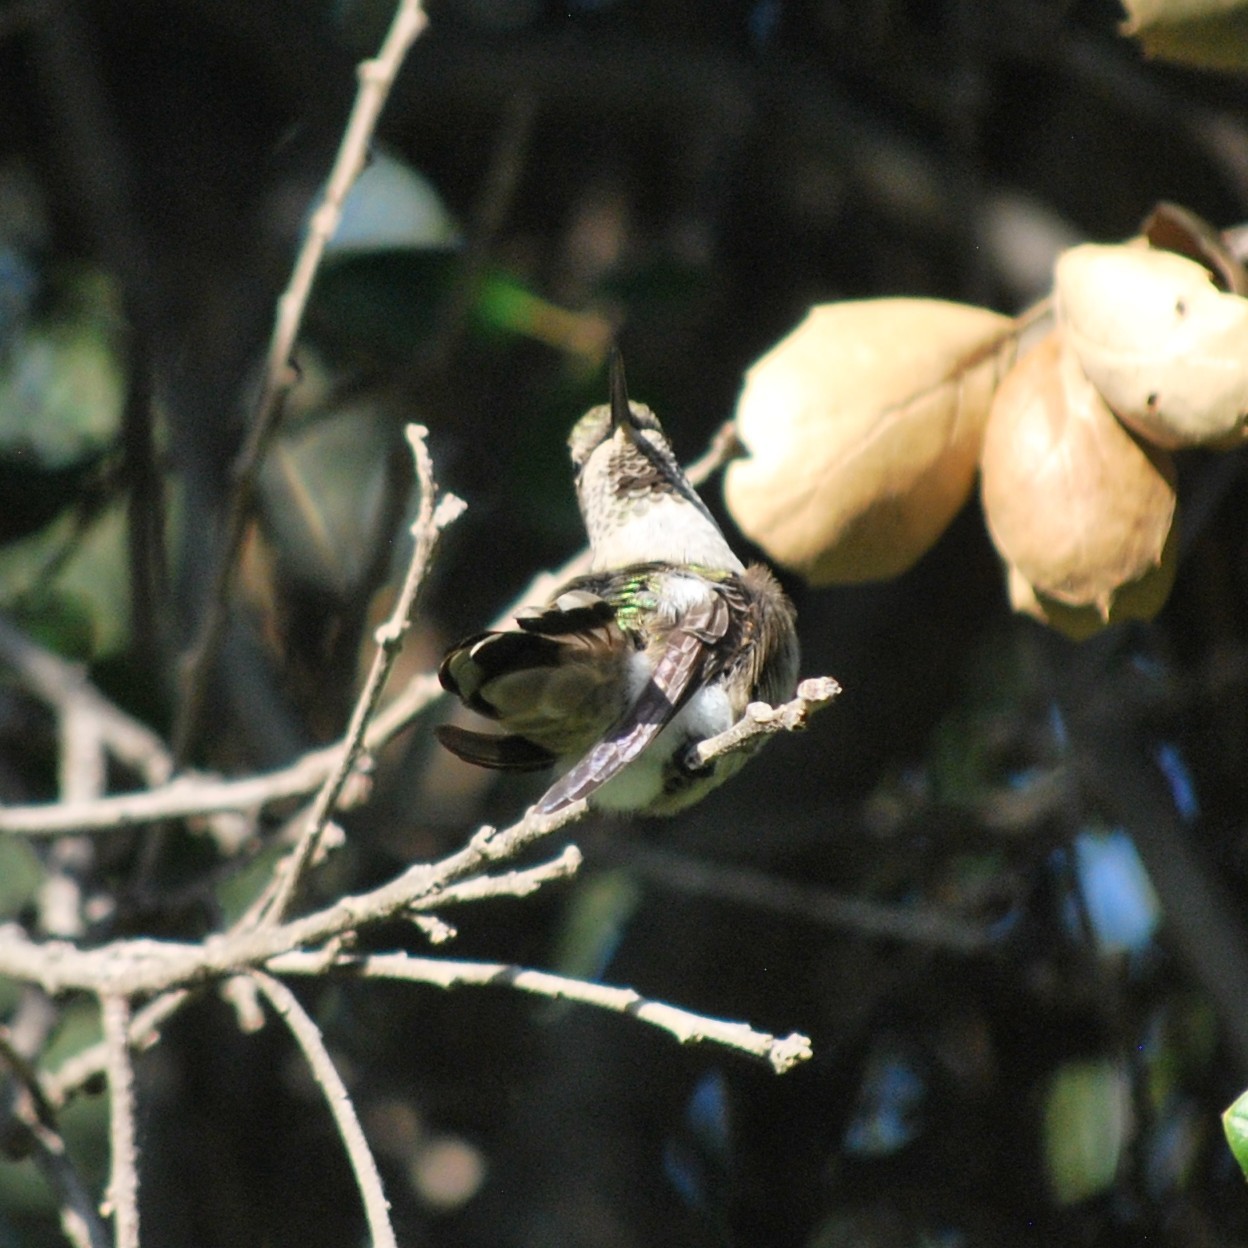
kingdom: Animalia
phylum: Chordata
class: Aves
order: Apodiformes
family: Trochilidae
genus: Calypte
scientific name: Calypte anna
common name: Anna's hummingbird
